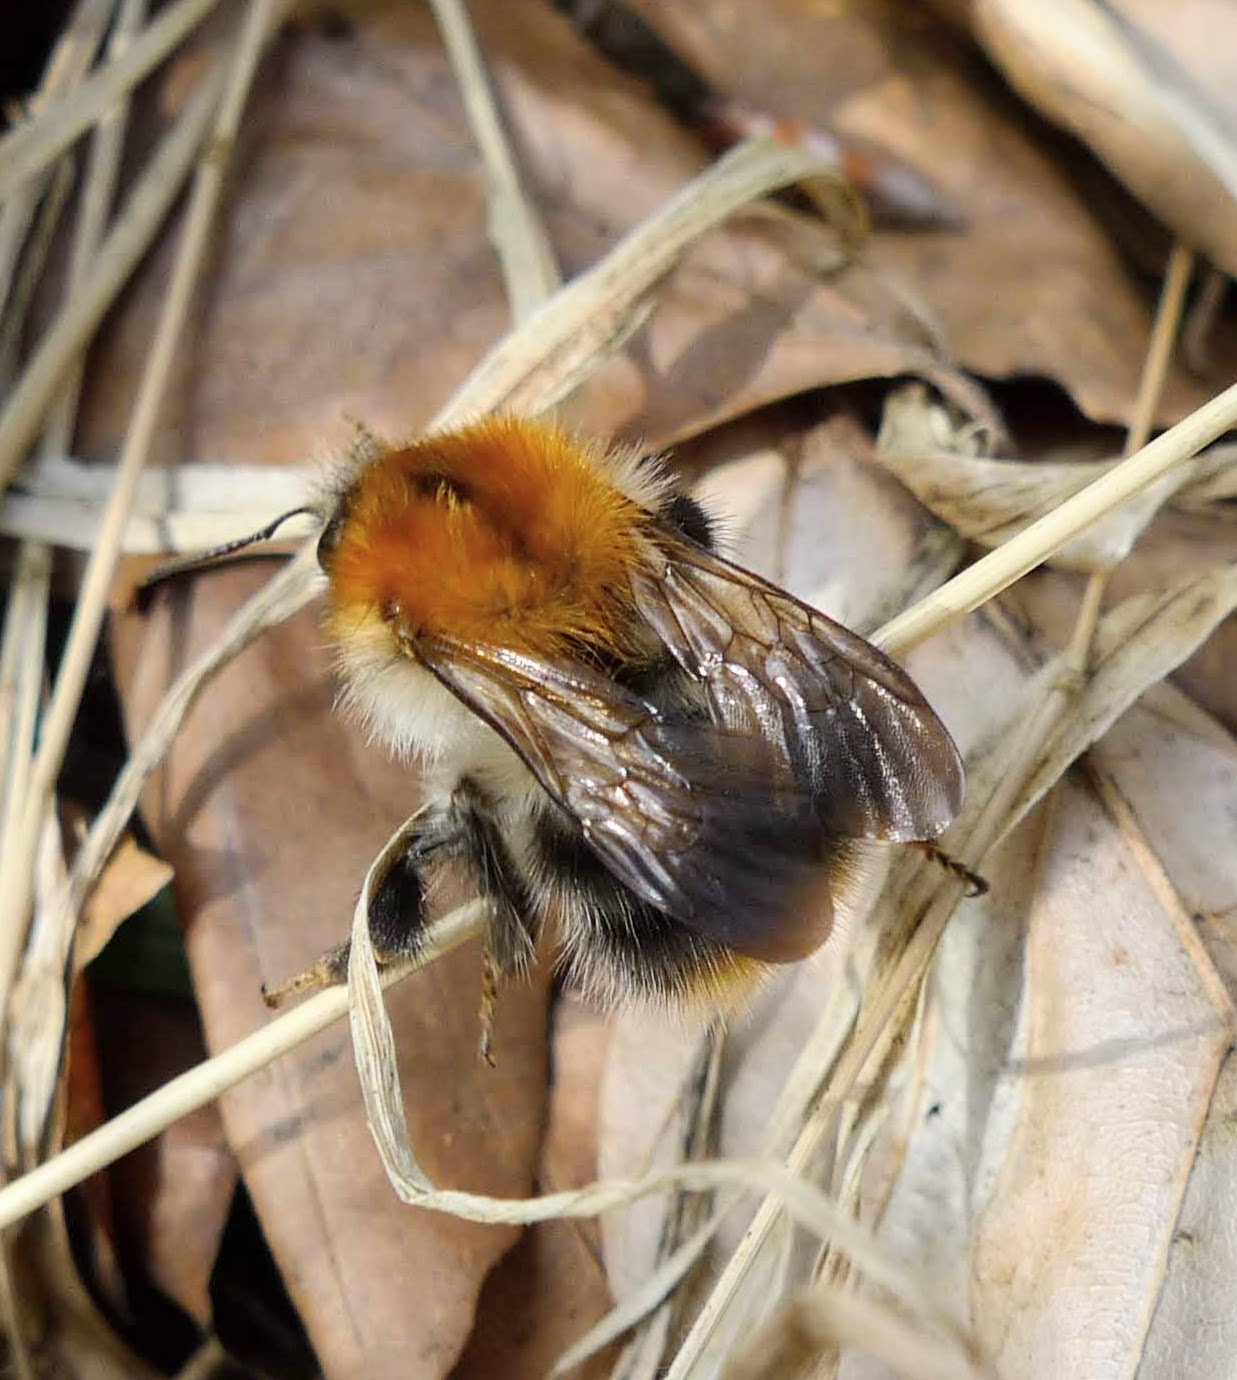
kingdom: Animalia
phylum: Arthropoda
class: Insecta
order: Hymenoptera
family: Apidae
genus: Bombus
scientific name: Bombus pascuorum
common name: Common carder bee
